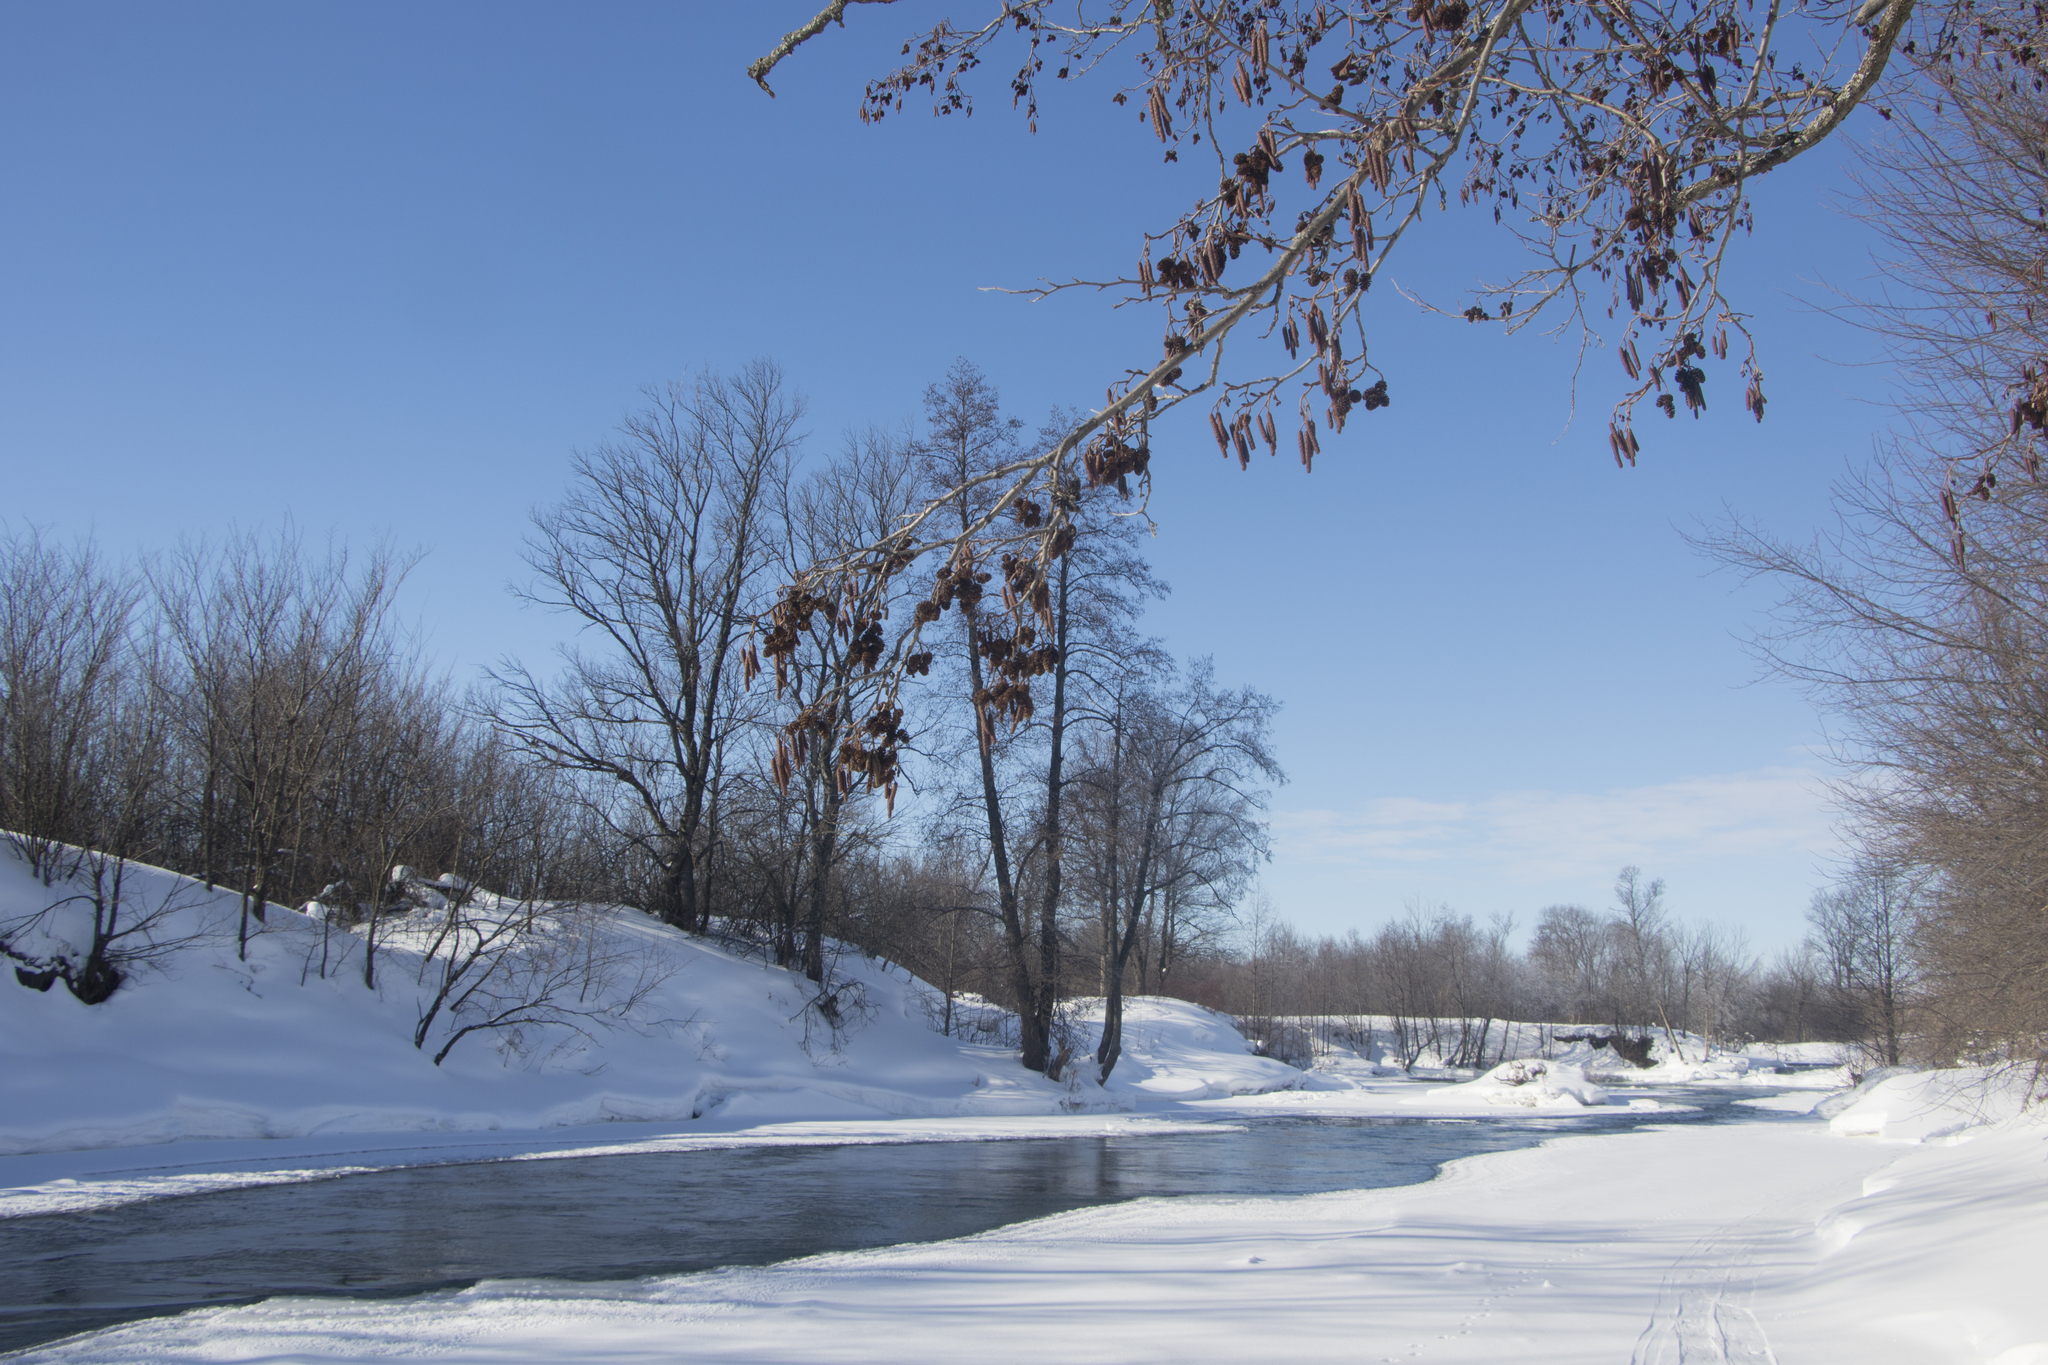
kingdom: Plantae
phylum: Tracheophyta
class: Magnoliopsida
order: Fagales
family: Betulaceae
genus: Alnus
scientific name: Alnus glutinosa
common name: Black alder
